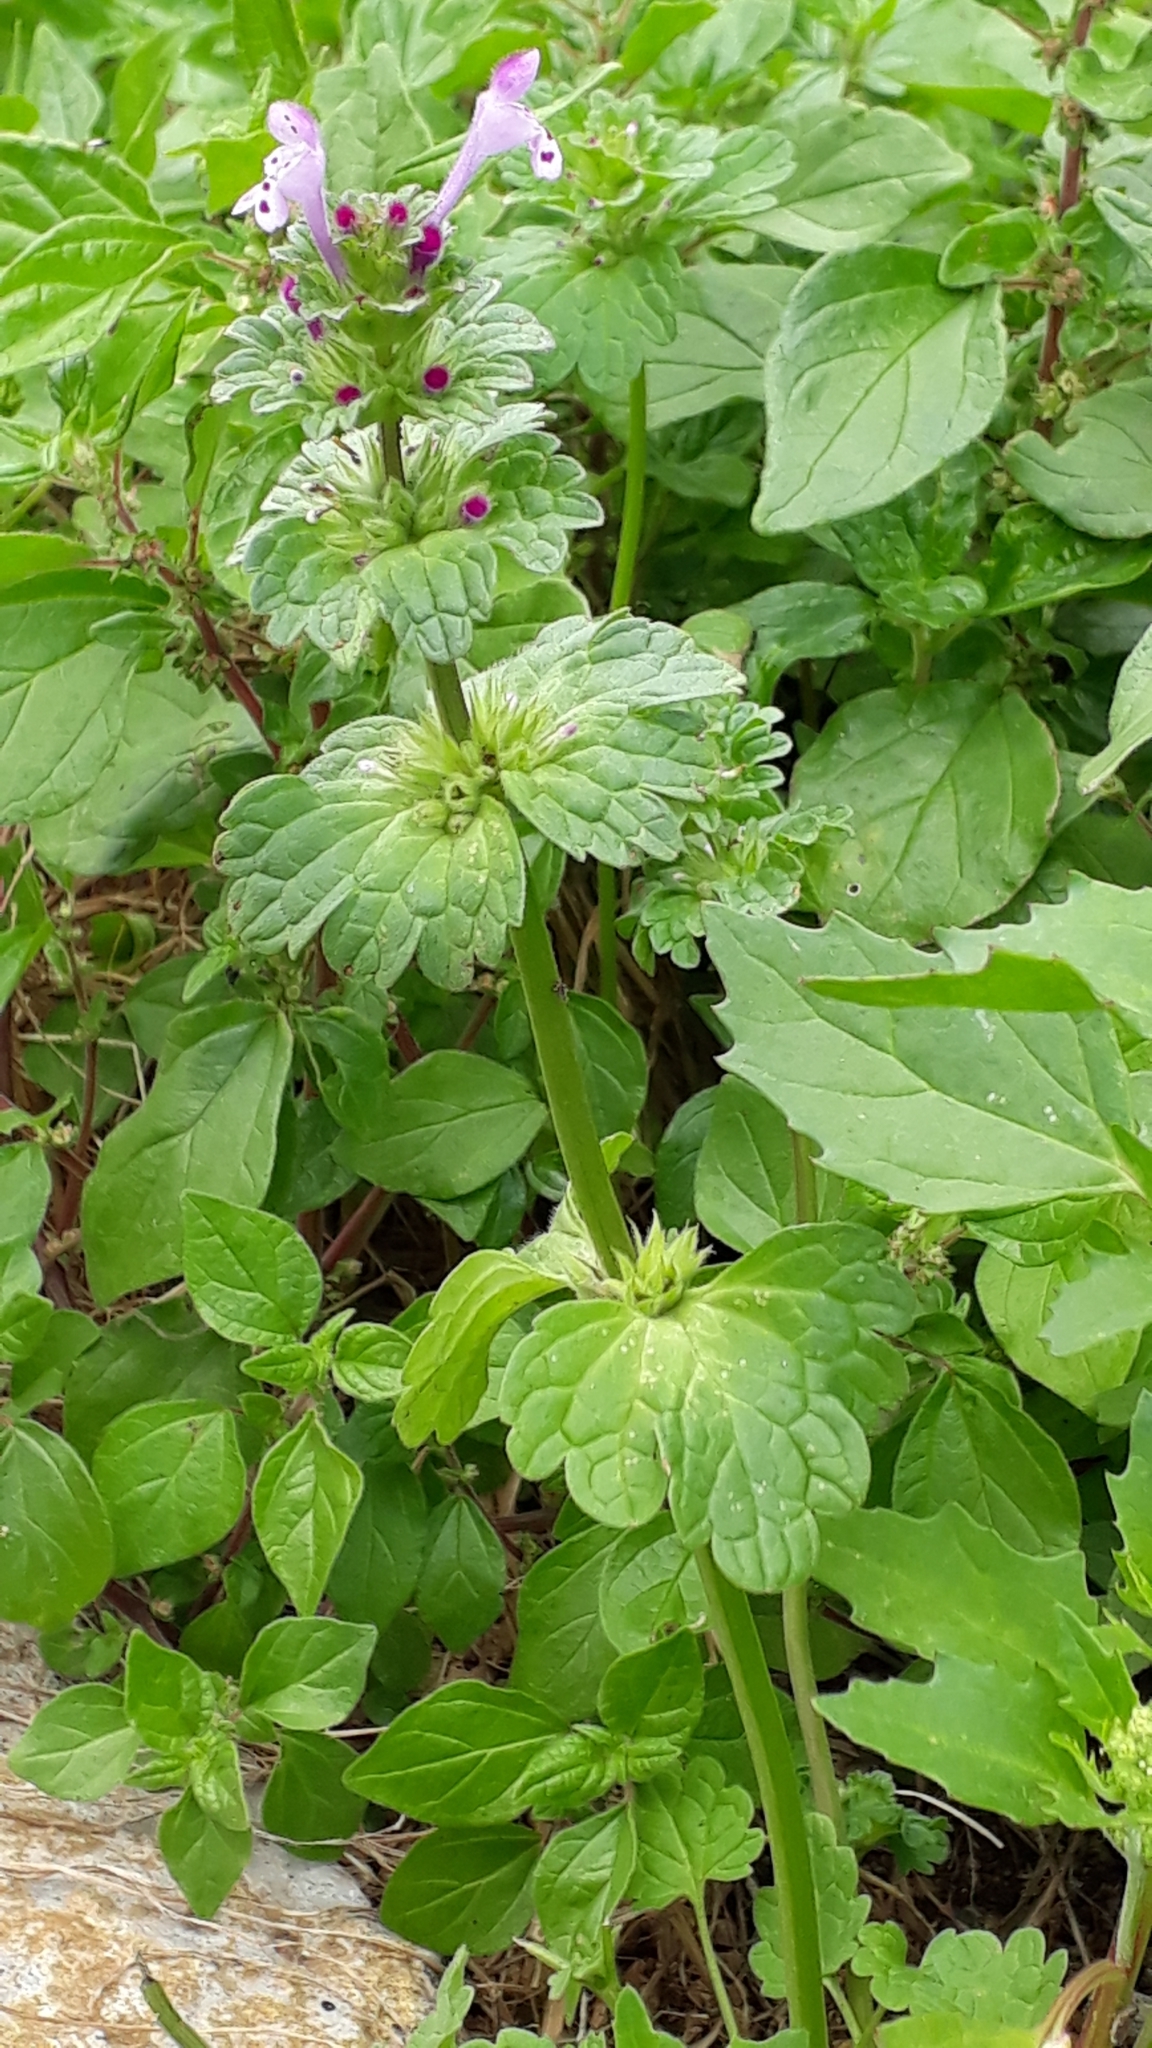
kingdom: Plantae
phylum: Tracheophyta
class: Magnoliopsida
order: Lamiales
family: Lamiaceae
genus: Lamium
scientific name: Lamium amplexicaule
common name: Henbit dead-nettle
